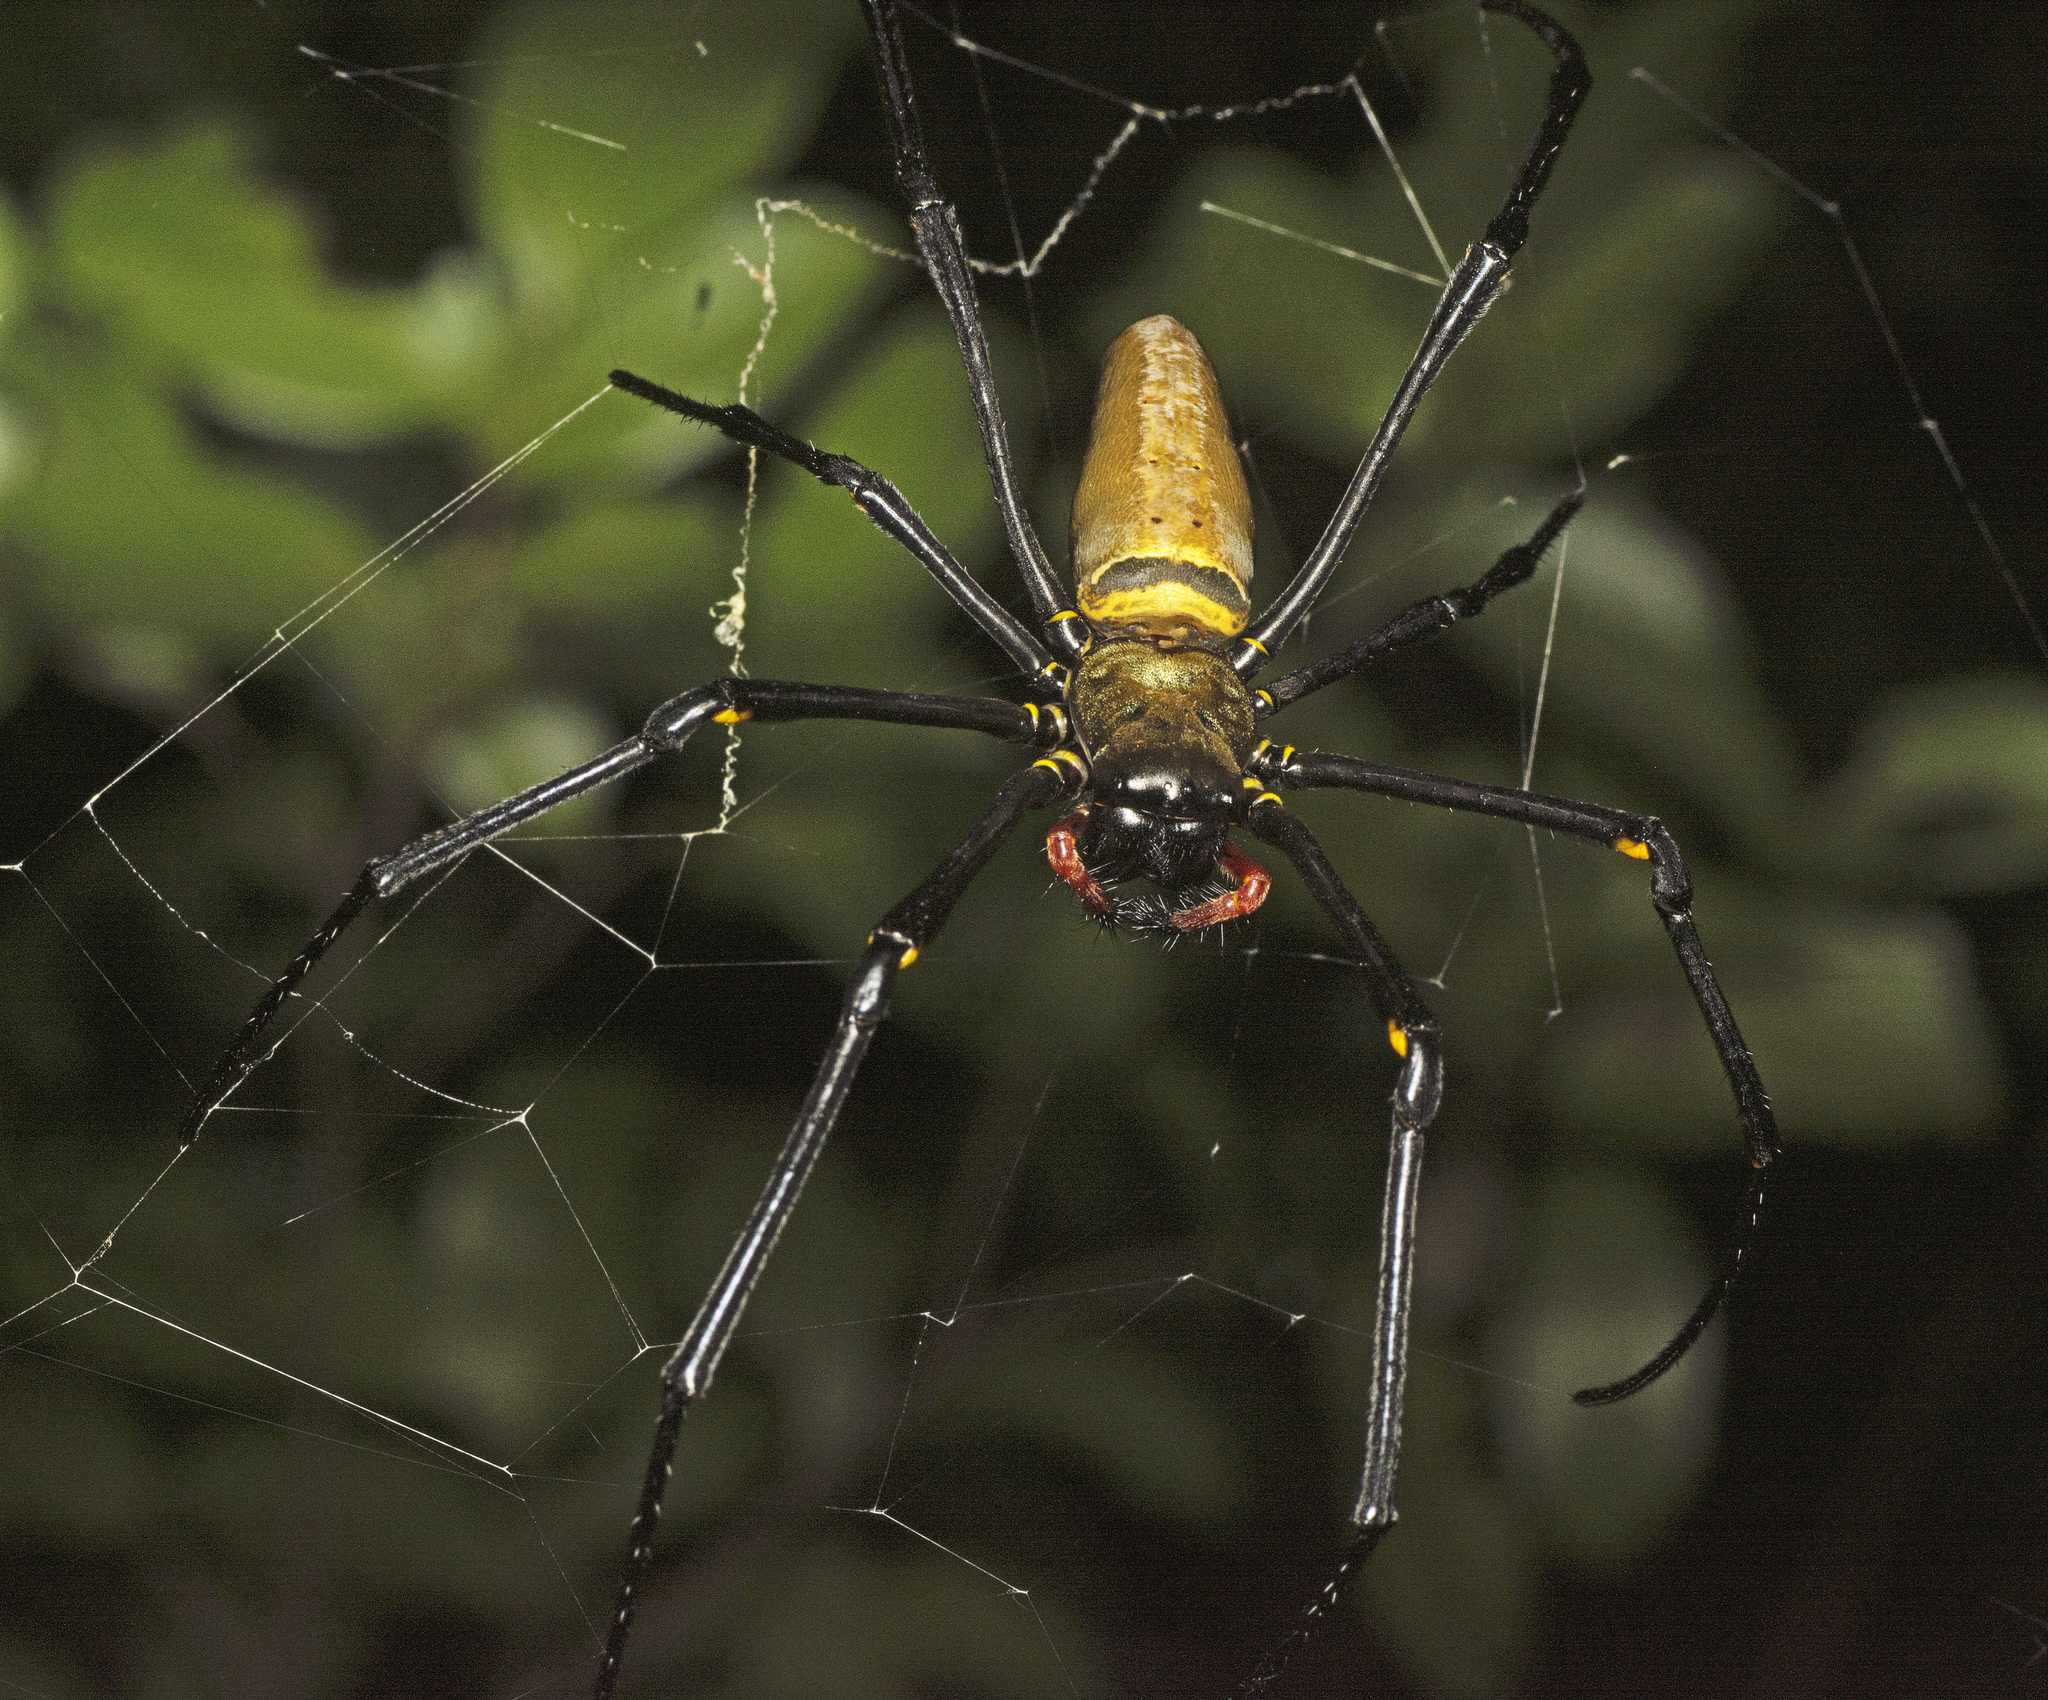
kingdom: Animalia
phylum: Arthropoda
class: Arachnida
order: Araneae
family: Araneidae
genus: Nephila
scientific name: Nephila pilipes
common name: Giant golden orb weaver
